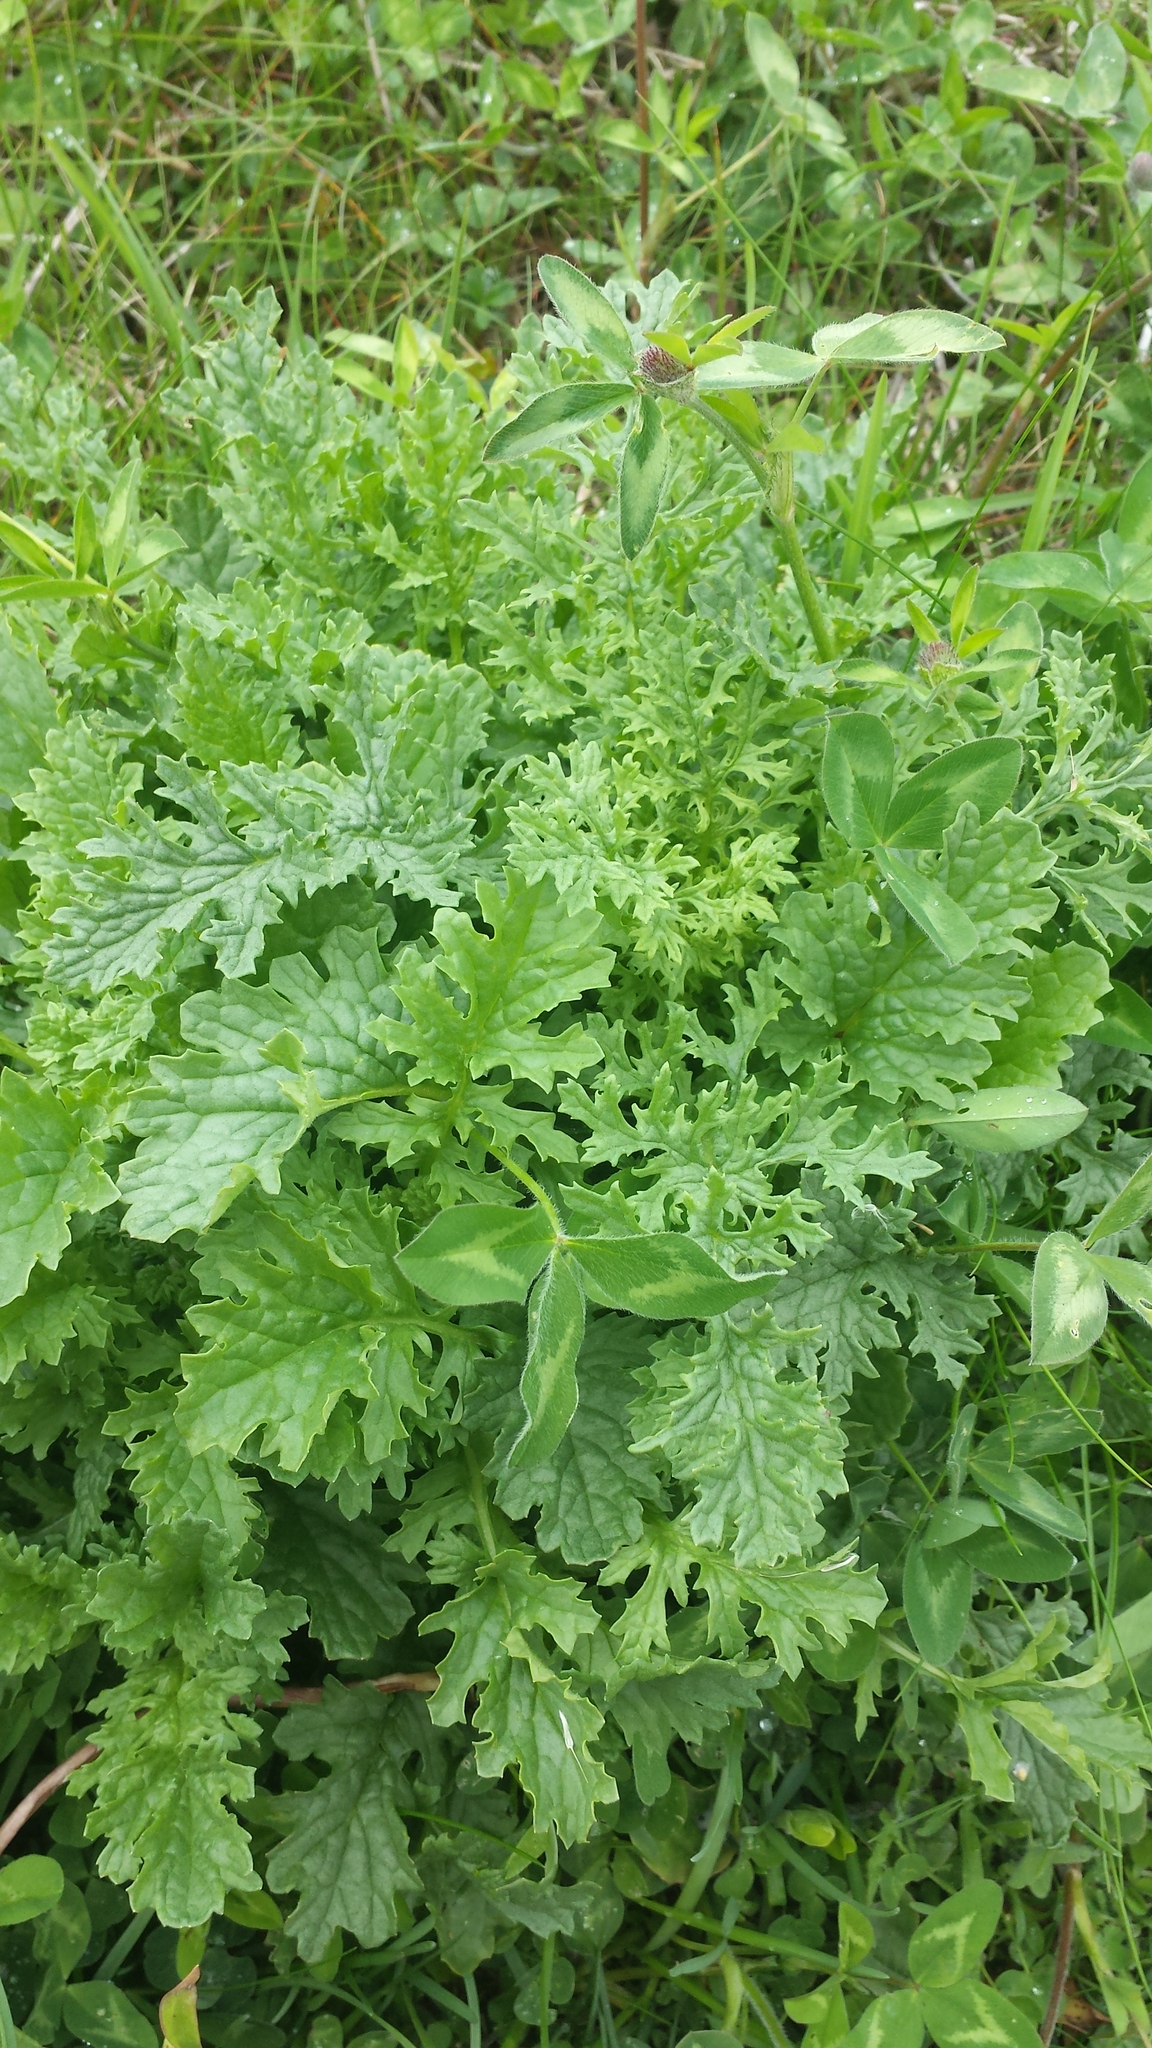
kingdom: Plantae
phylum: Tracheophyta
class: Magnoliopsida
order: Asterales
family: Asteraceae
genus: Jacobaea
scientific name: Jacobaea vulgaris
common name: Stinking willie
